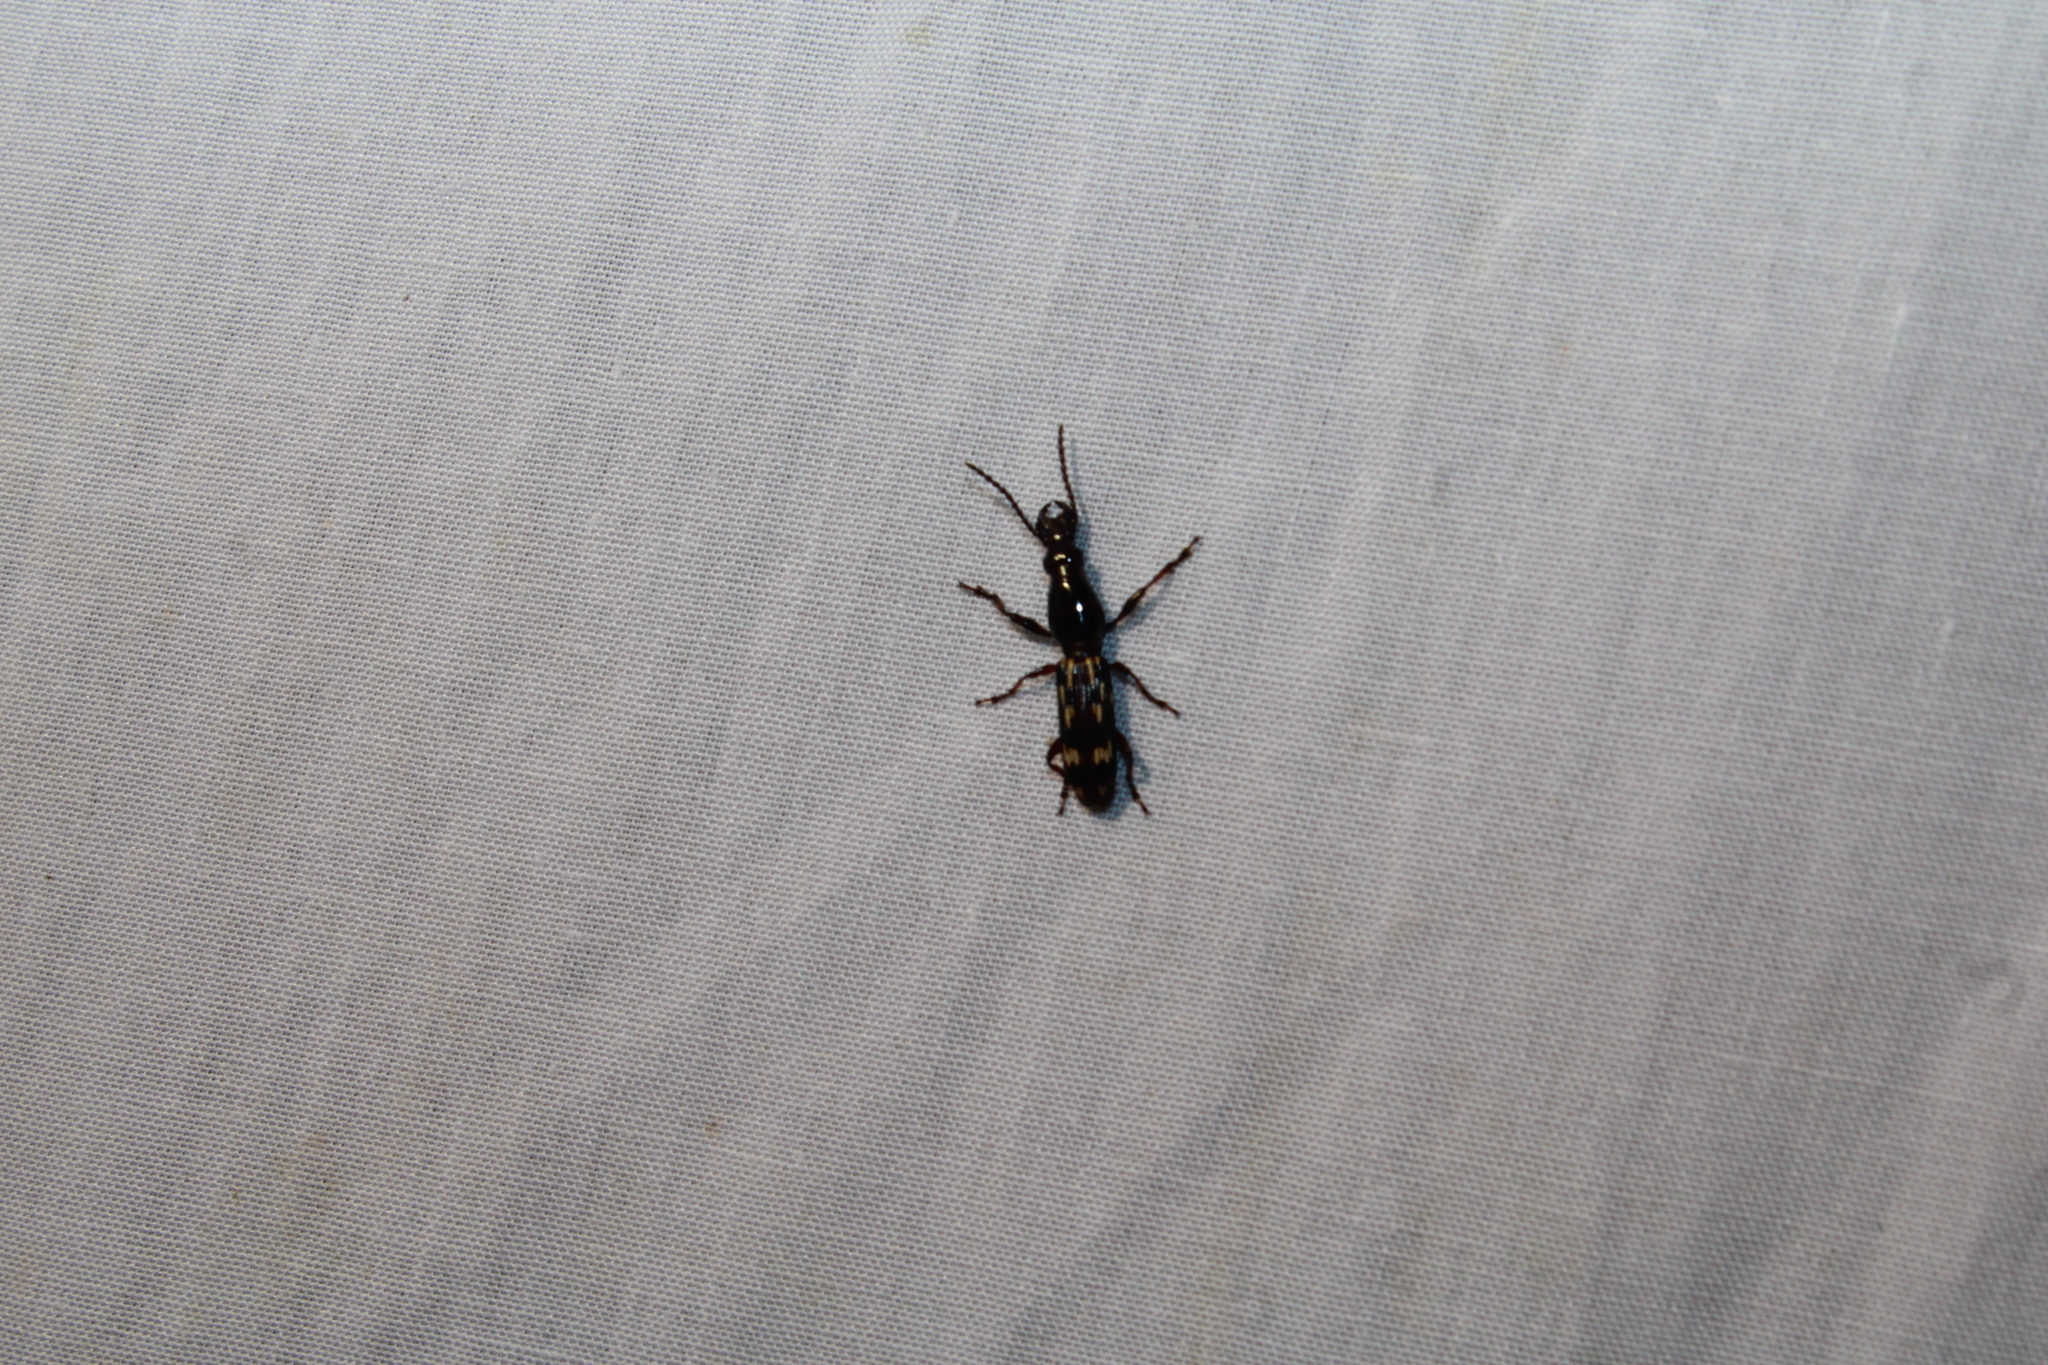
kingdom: Animalia
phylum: Arthropoda
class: Insecta
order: Coleoptera
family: Brentidae
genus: Arrenodes
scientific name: Arrenodes minutus
